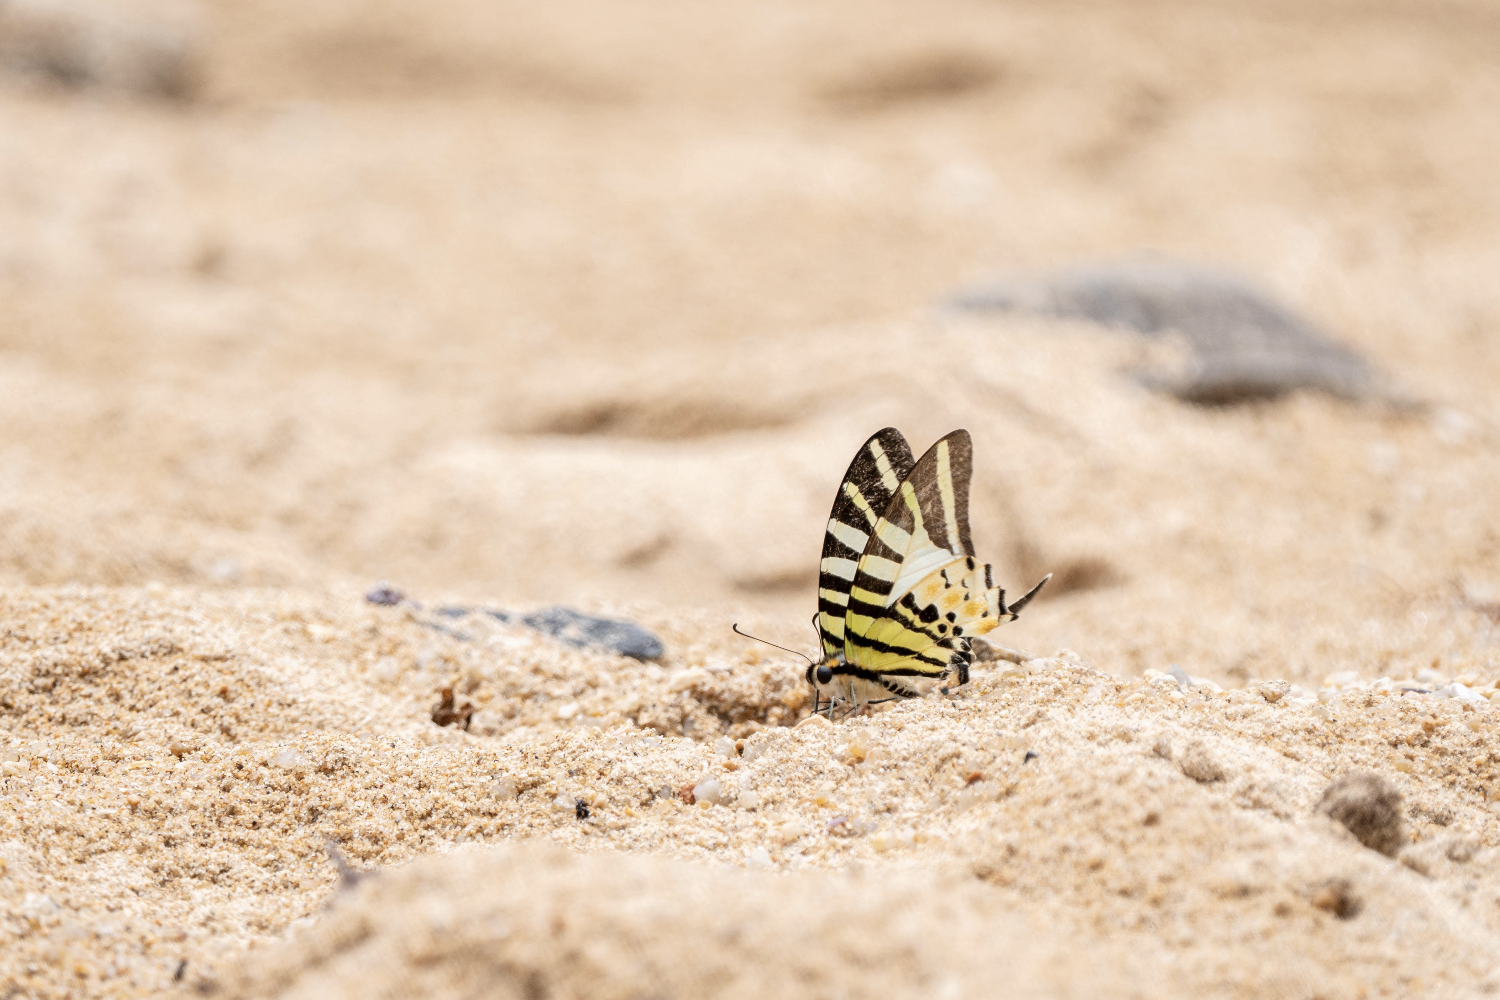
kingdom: Animalia
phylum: Arthropoda
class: Insecta
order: Lepidoptera
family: Papilionidae
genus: Graphium
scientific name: Graphium antiphates
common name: Fivebar swordtail
